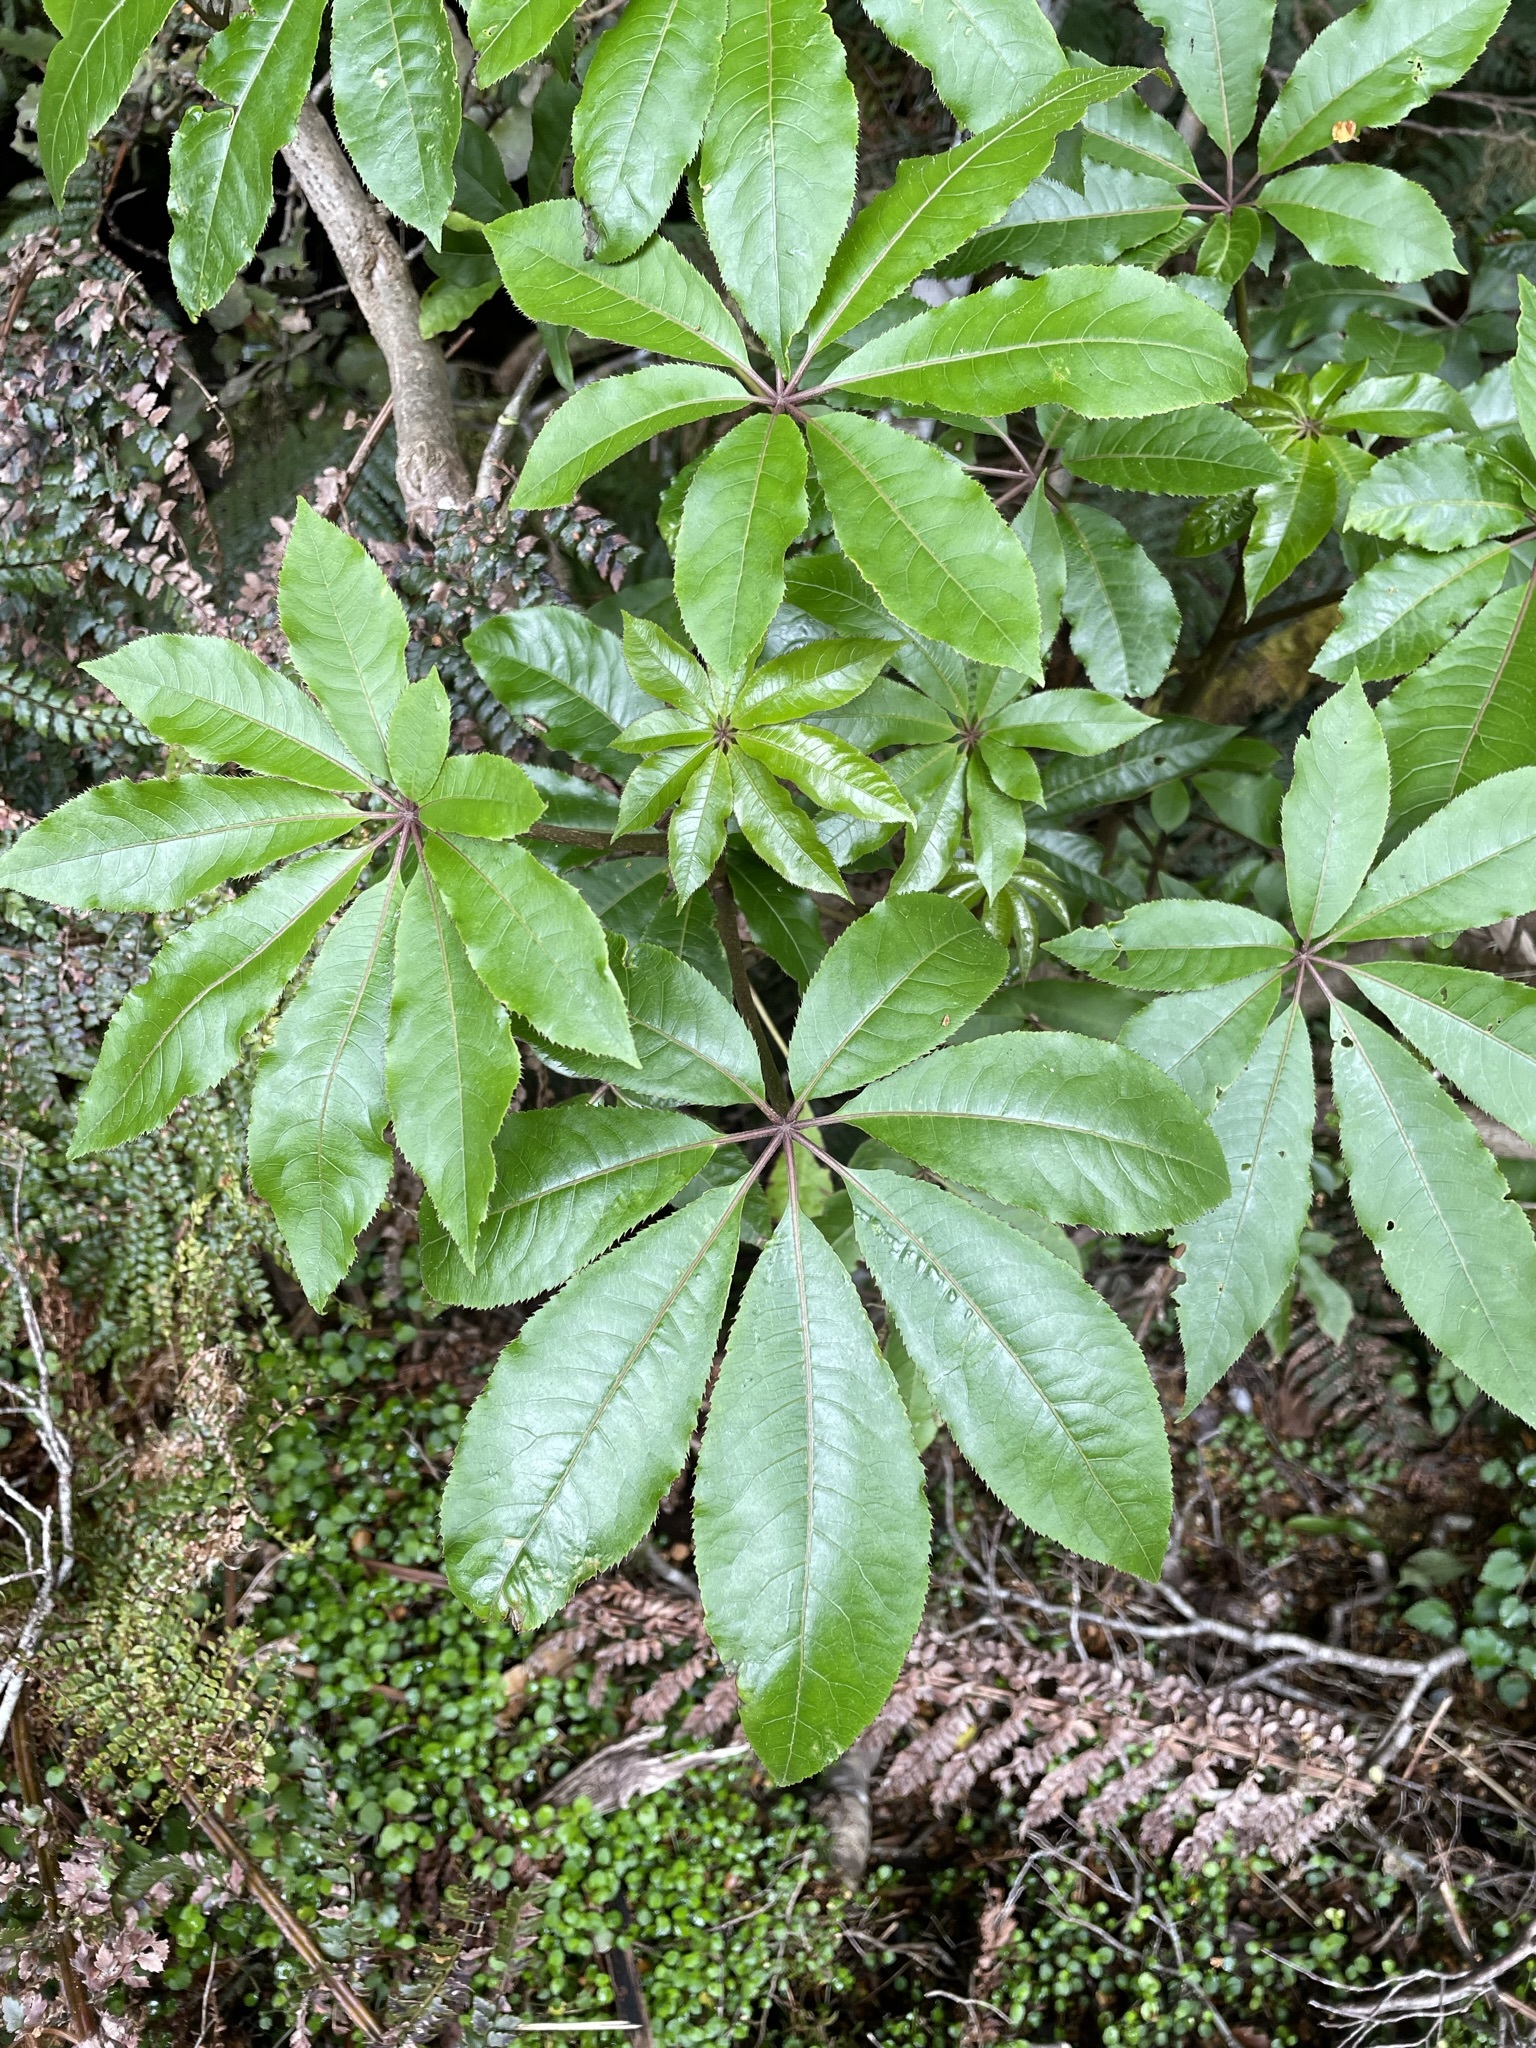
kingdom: Plantae
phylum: Tracheophyta
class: Magnoliopsida
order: Apiales
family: Araliaceae
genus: Schefflera
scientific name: Schefflera digitata
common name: Pate
